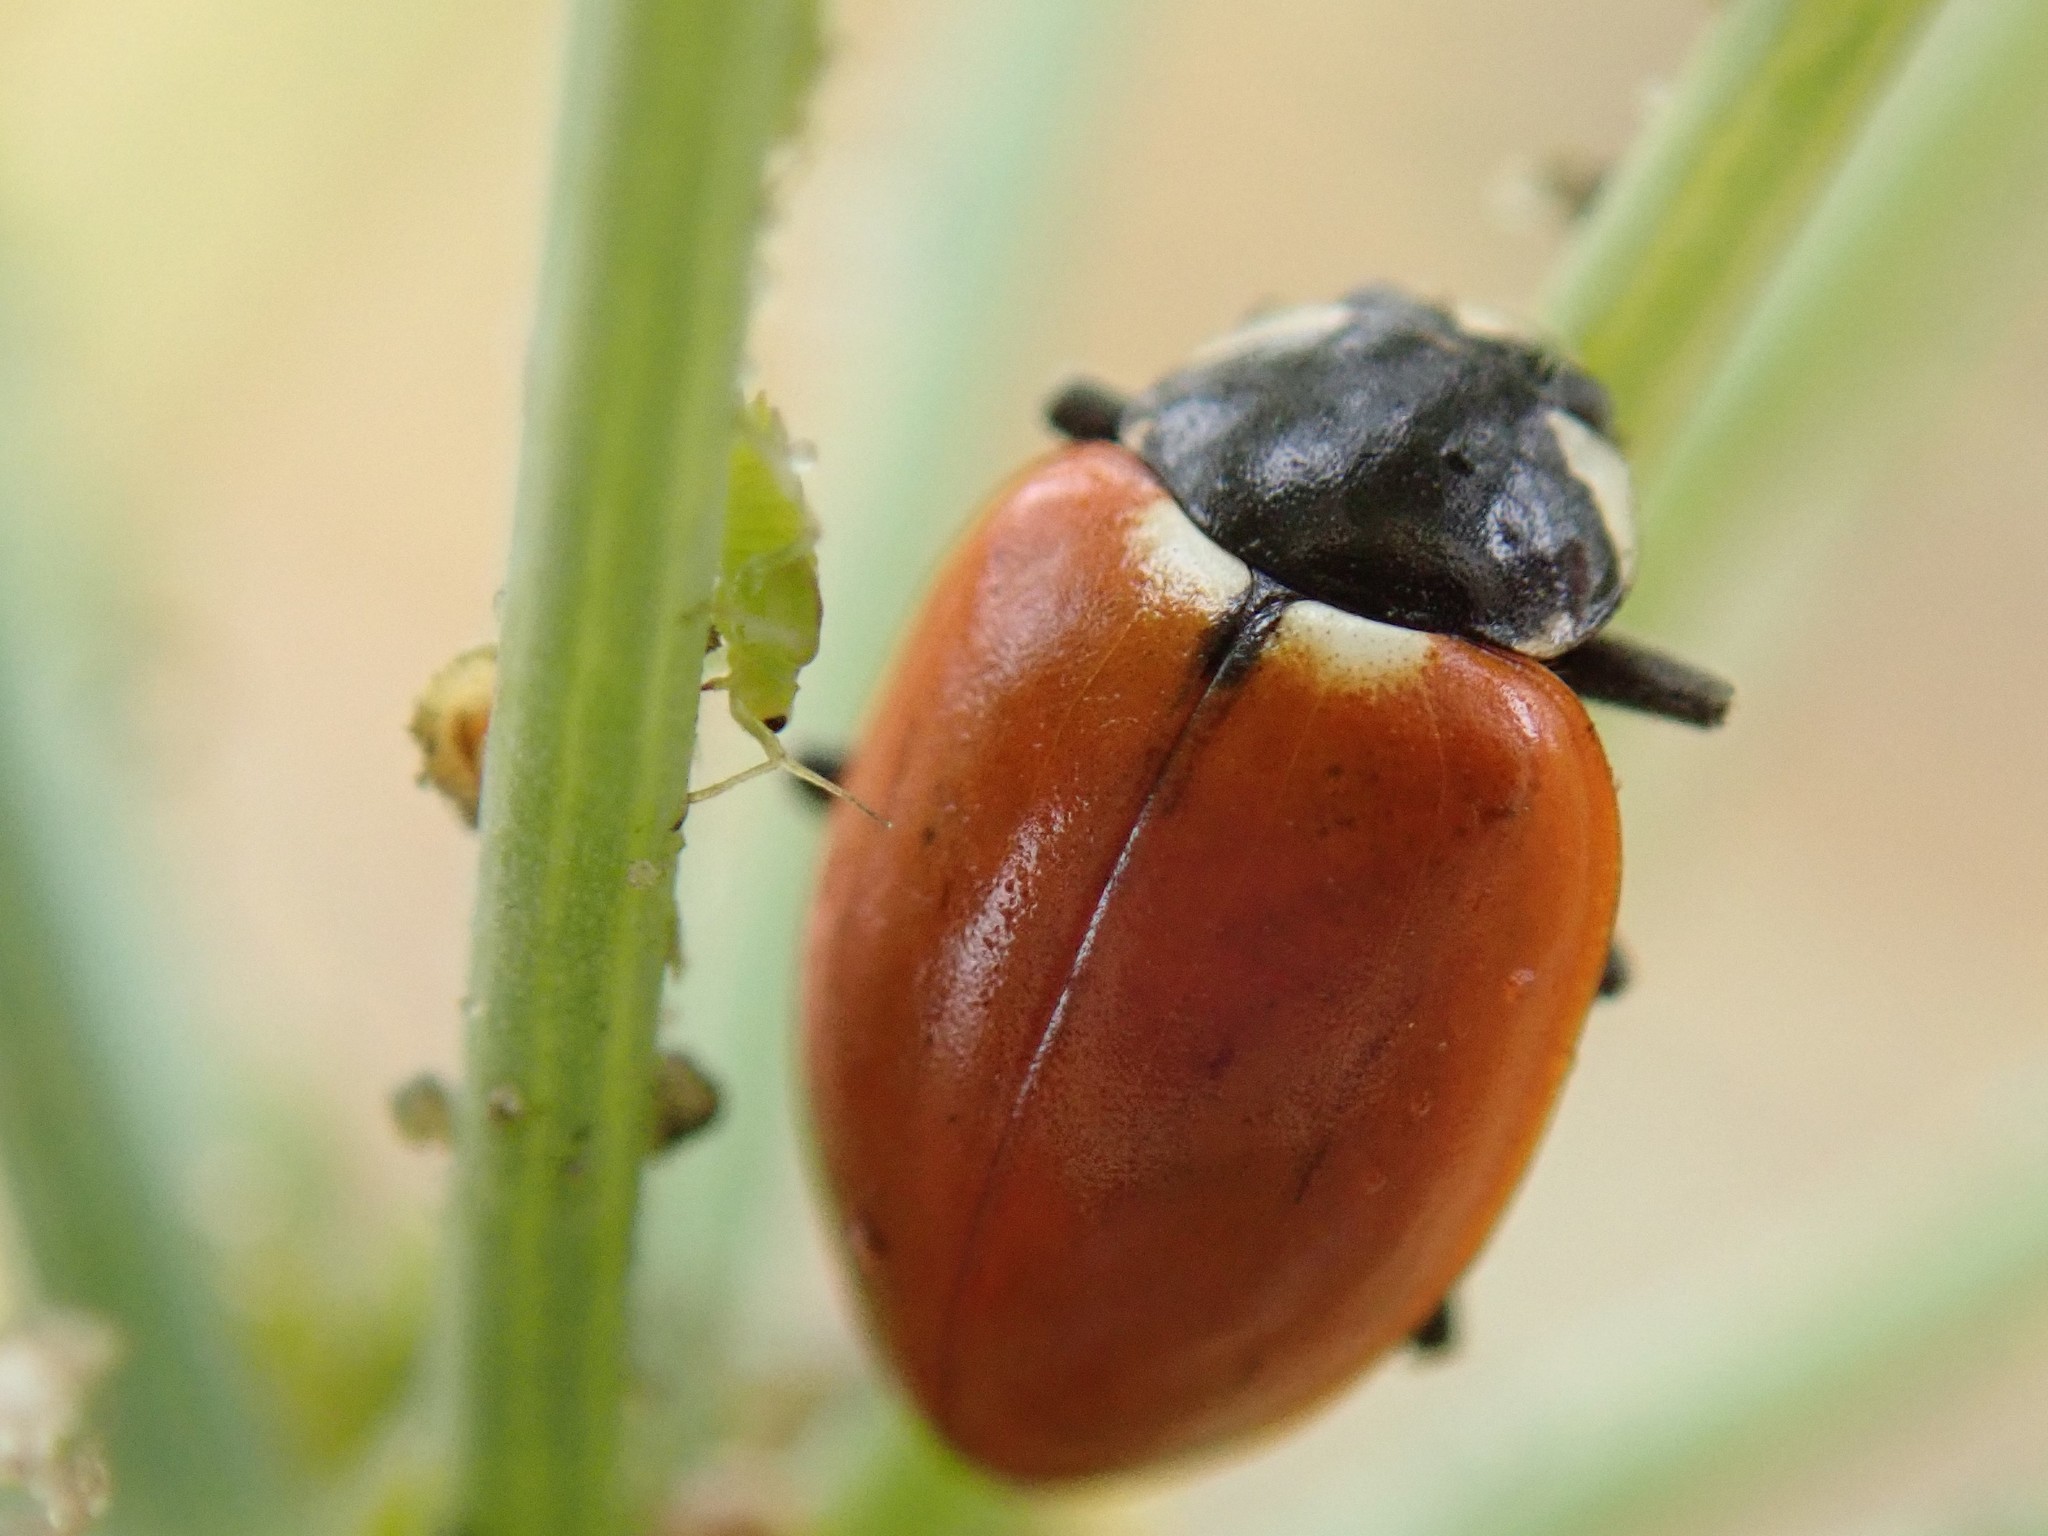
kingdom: Animalia
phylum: Arthropoda
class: Insecta
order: Coleoptera
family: Coccinellidae
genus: Hippodamia
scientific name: Hippodamia quinquesignata
